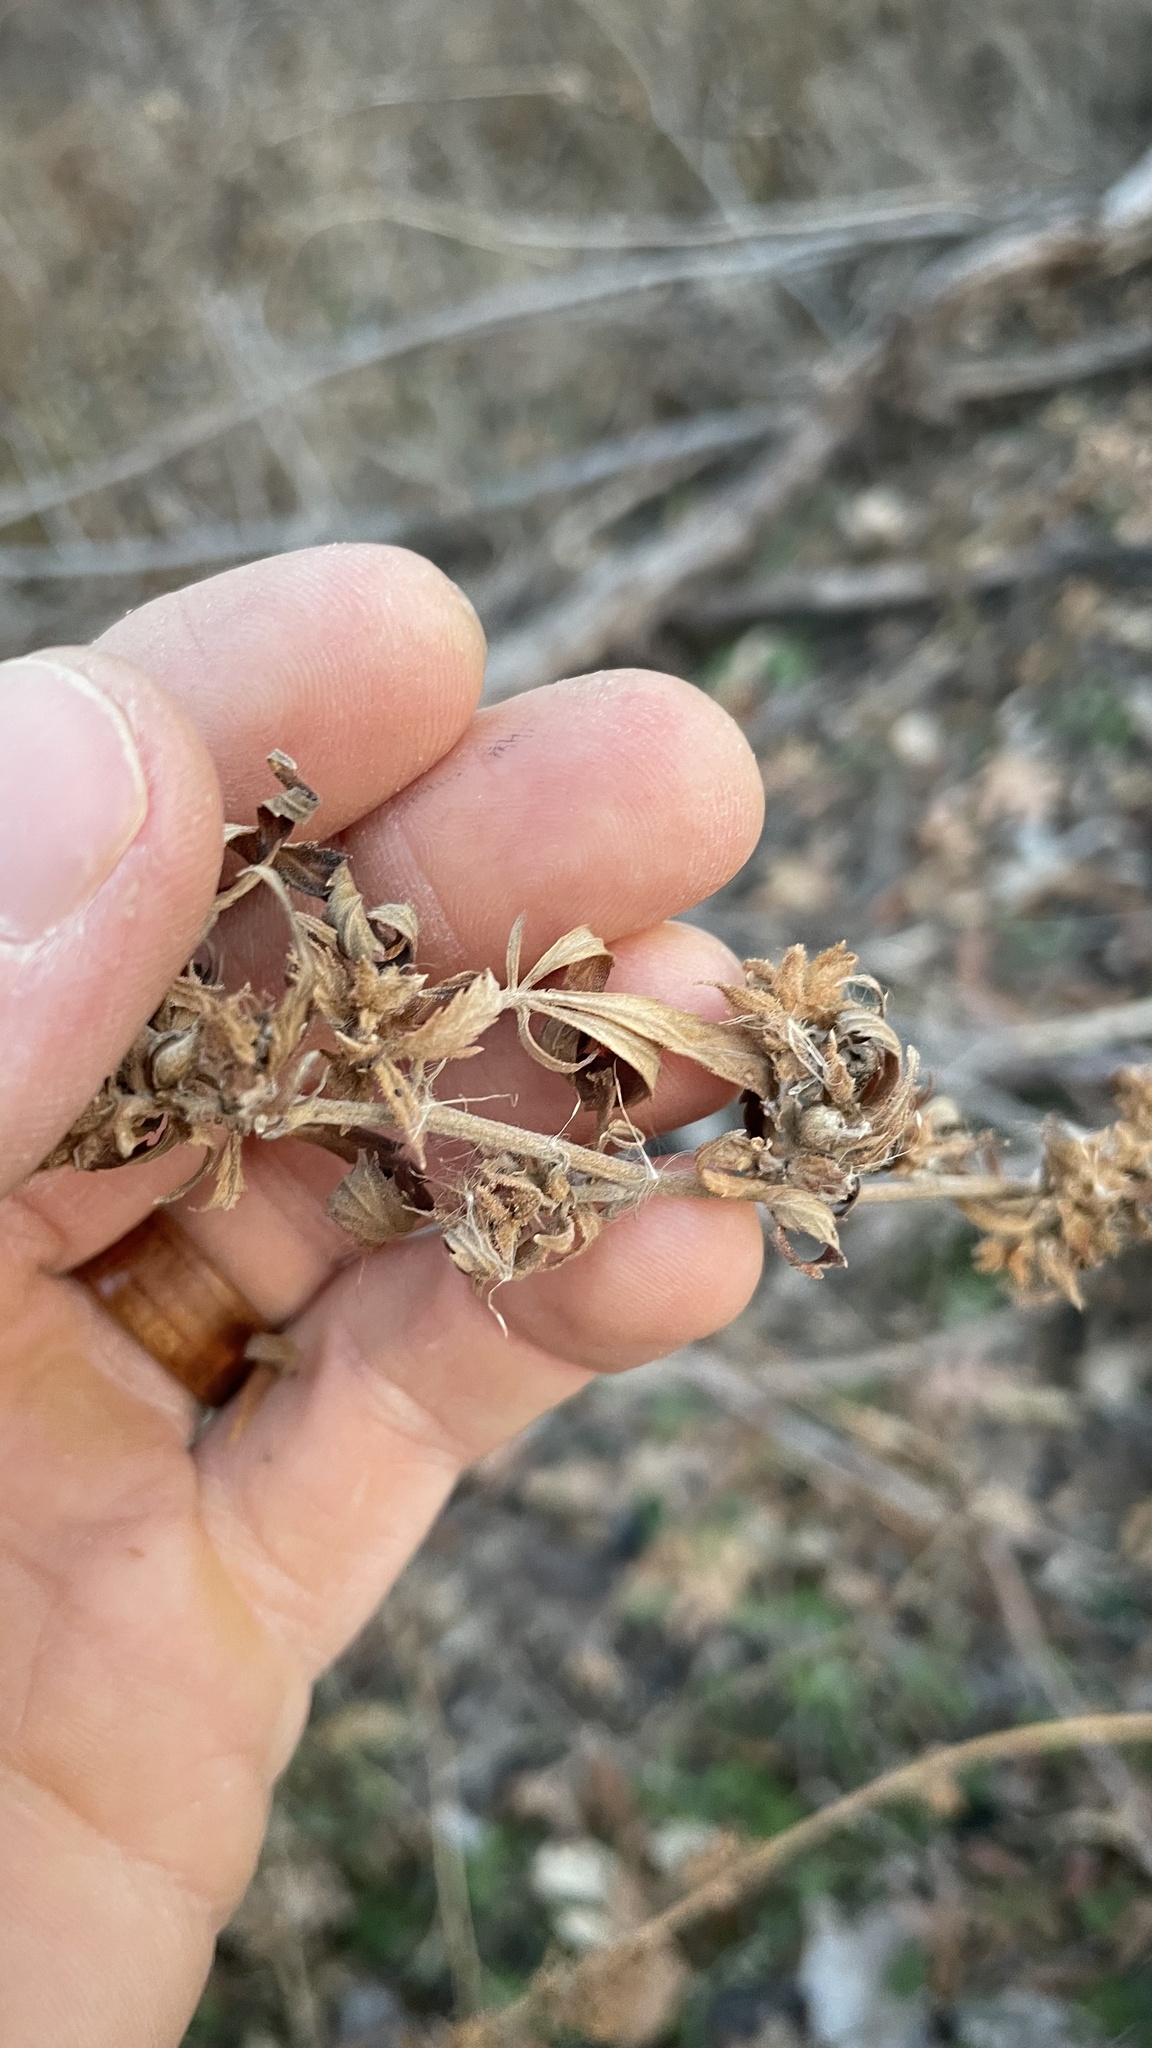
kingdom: Plantae
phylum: Tracheophyta
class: Magnoliopsida
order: Rosales
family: Cannabaceae
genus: Cannabis
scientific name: Cannabis sativa
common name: Hemp
